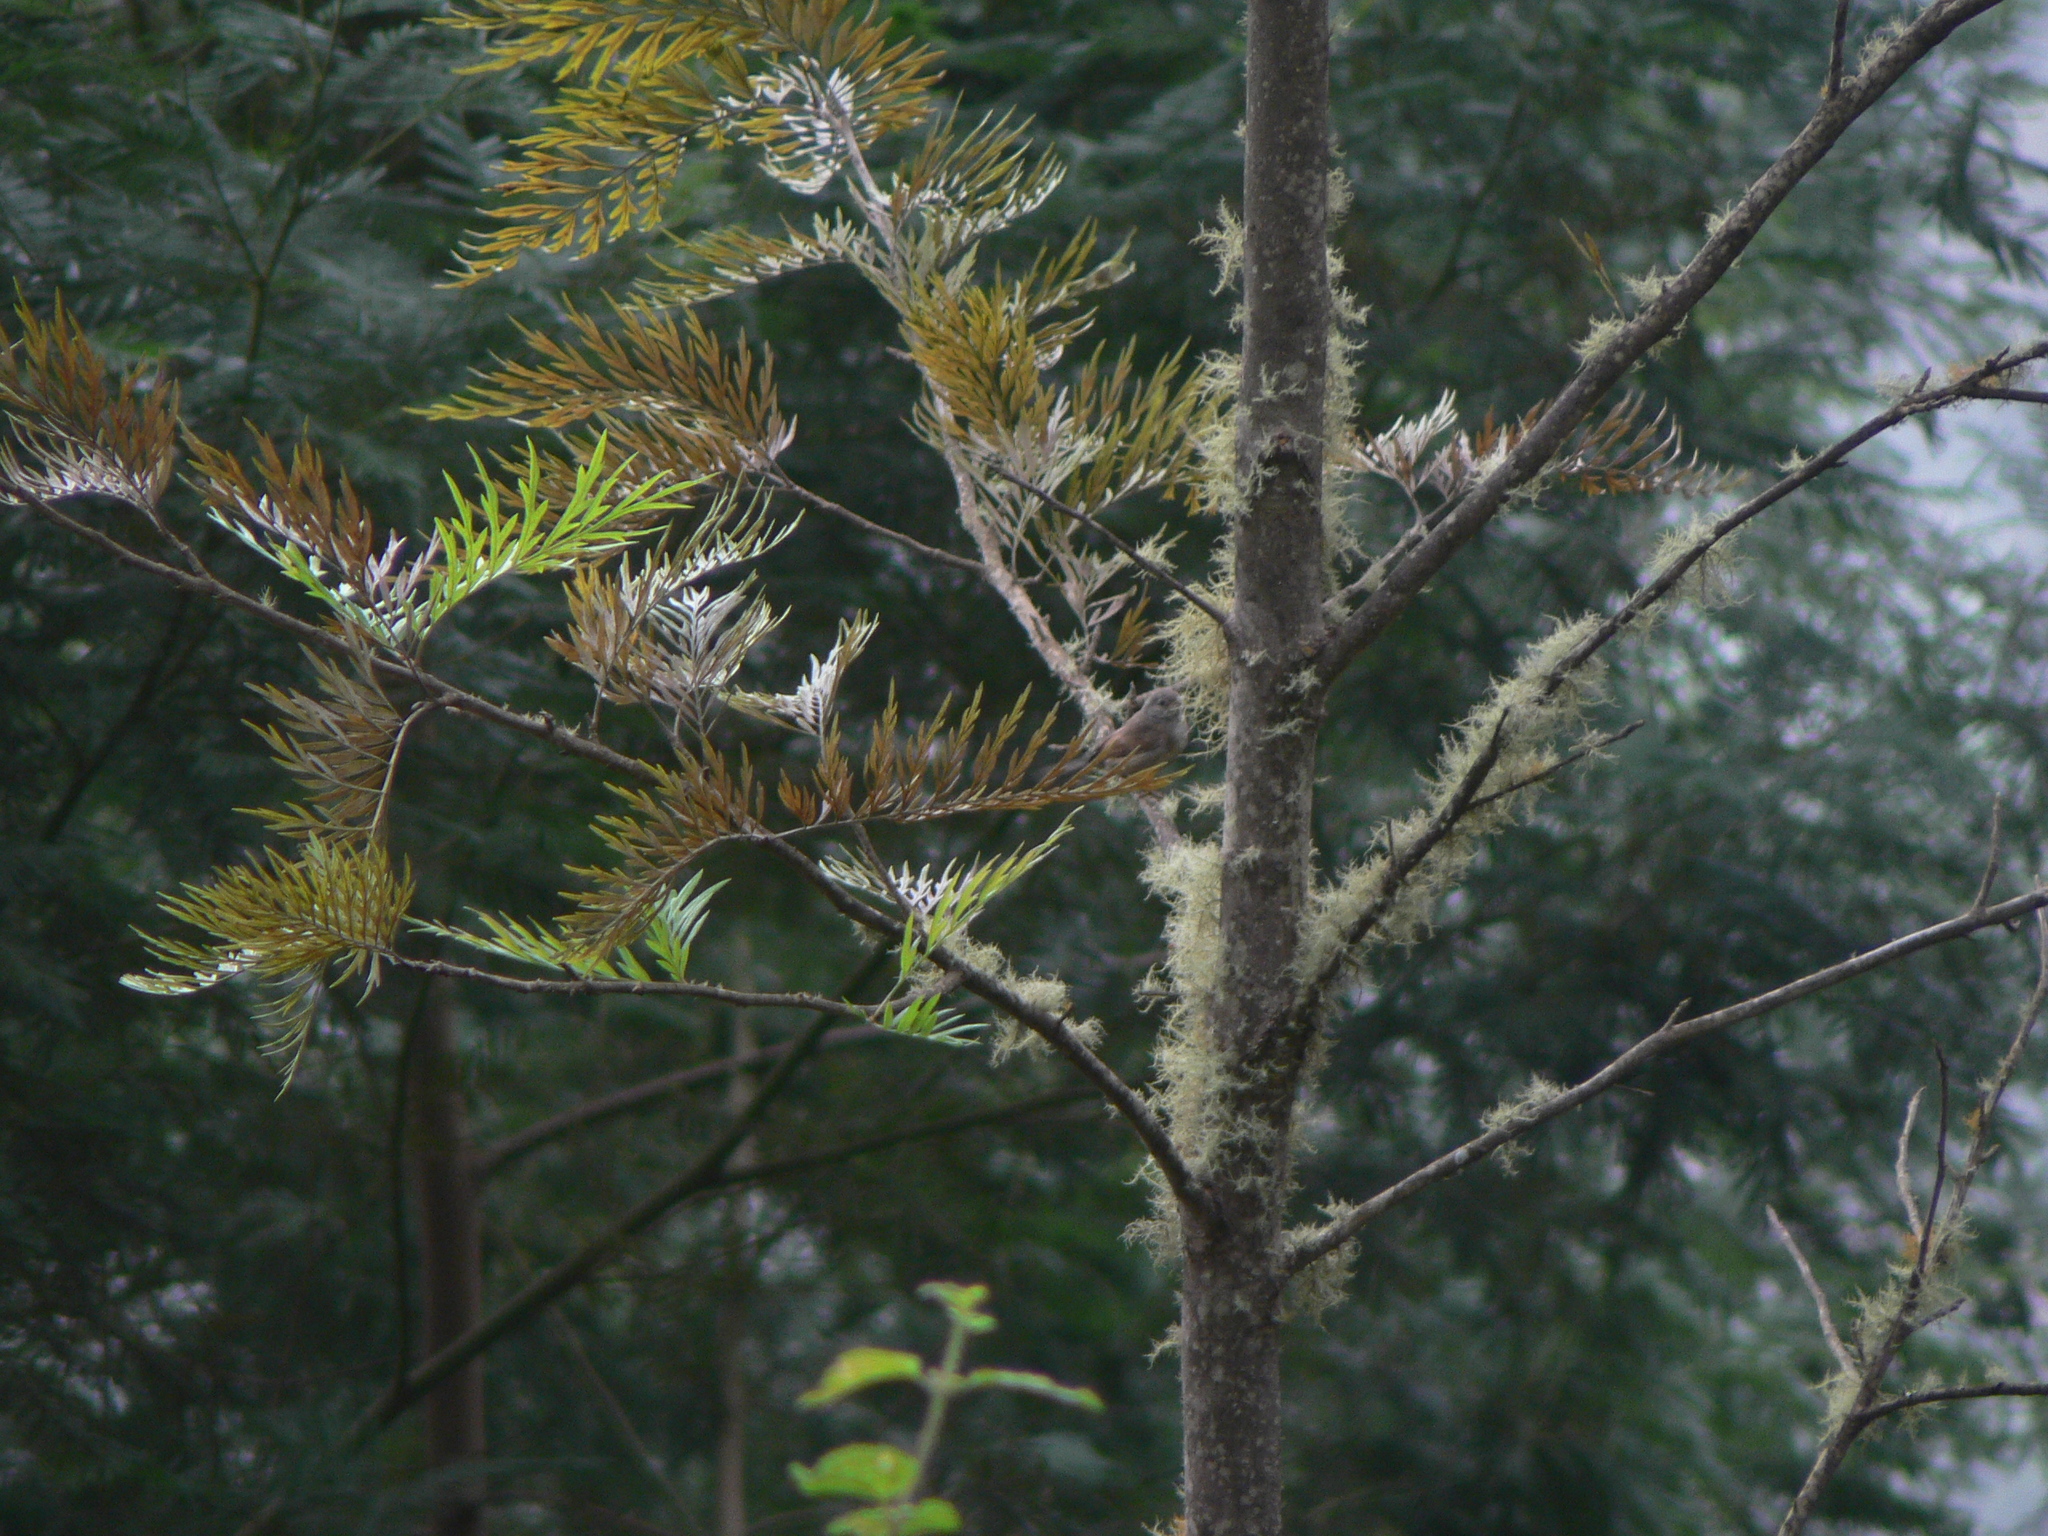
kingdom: Plantae
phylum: Tracheophyta
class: Magnoliopsida
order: Proteales
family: Proteaceae
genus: Grevillea
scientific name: Grevillea robusta
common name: Silkoak
